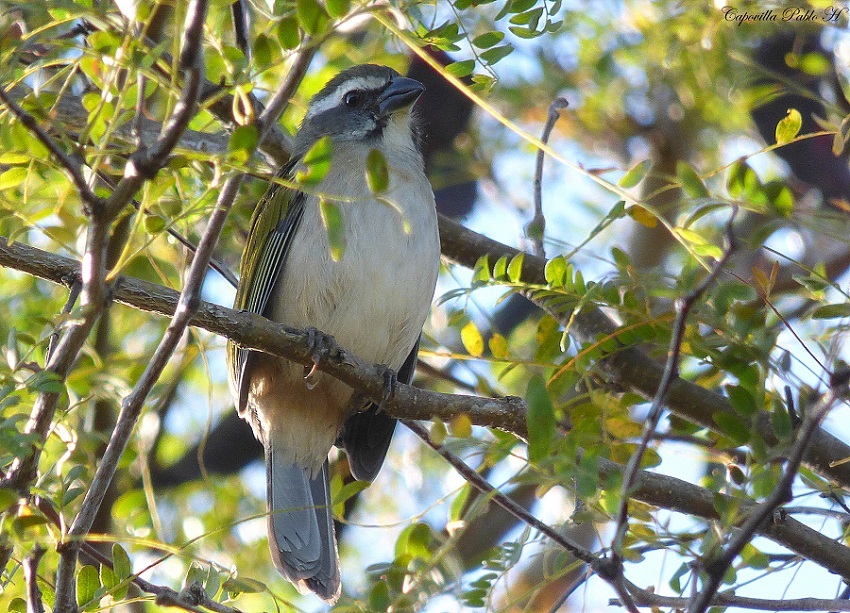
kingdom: Animalia
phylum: Chordata
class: Aves
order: Passeriformes
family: Thraupidae
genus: Saltator
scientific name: Saltator similis
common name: Green-winged saltator
